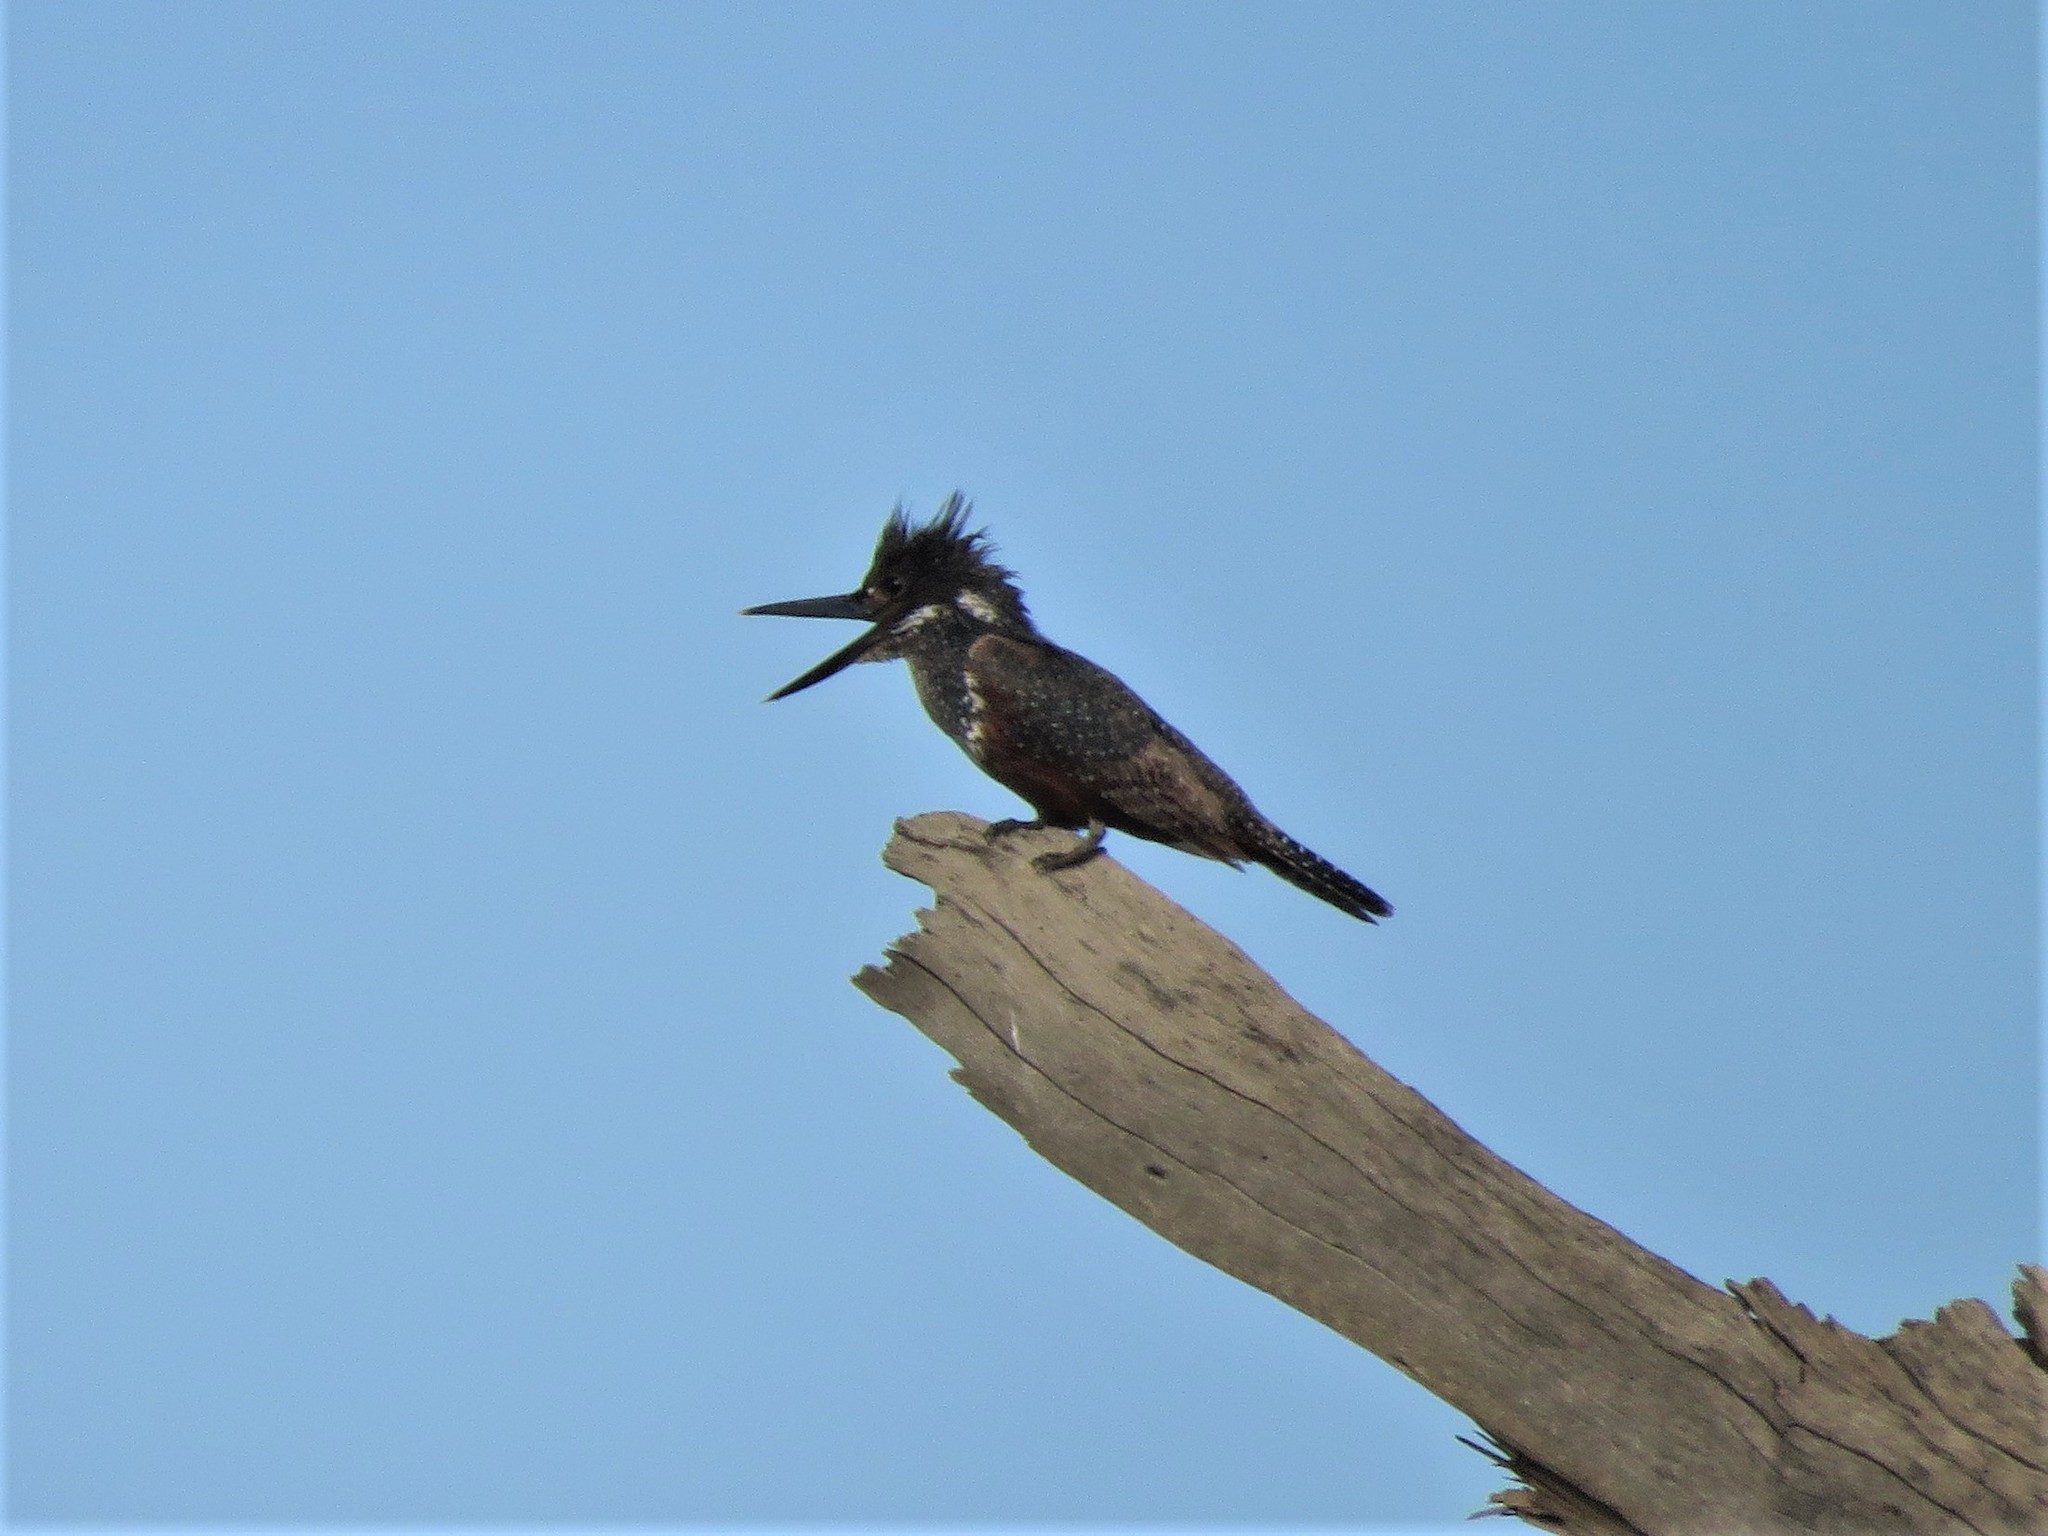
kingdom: Animalia
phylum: Chordata
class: Aves
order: Coraciiformes
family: Alcedinidae
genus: Megaceryle
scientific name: Megaceryle maxima
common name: Giant kingfisher
